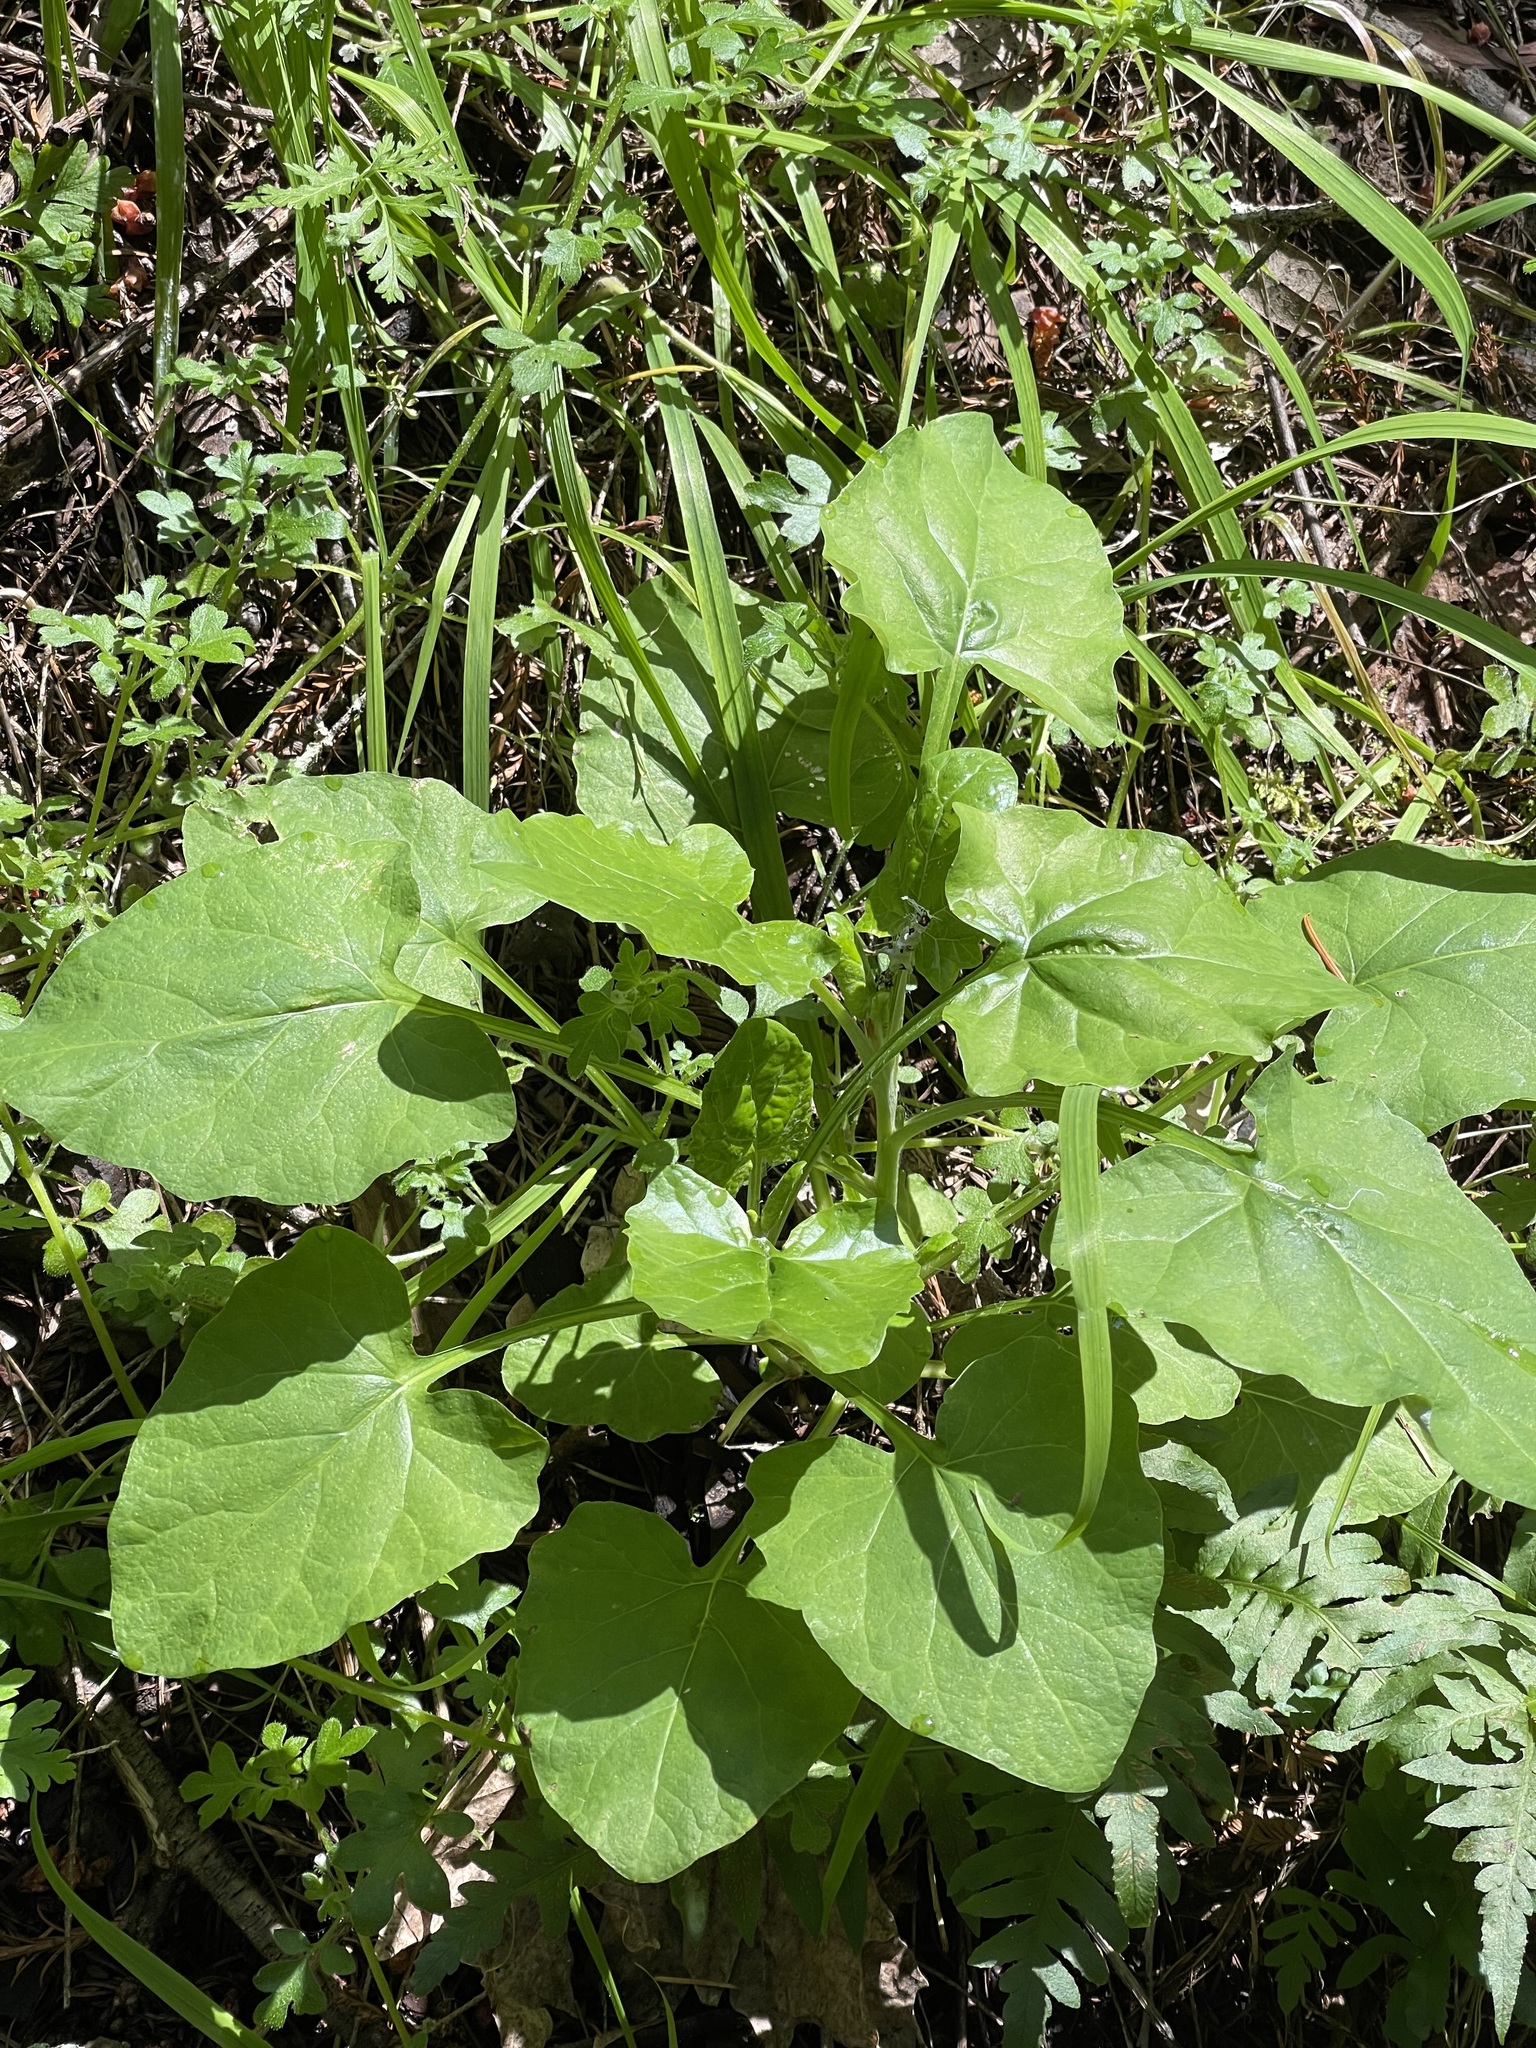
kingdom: Plantae
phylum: Tracheophyta
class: Magnoliopsida
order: Asterales
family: Asteraceae
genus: Adenocaulon
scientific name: Adenocaulon bicolor
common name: Trailplant
